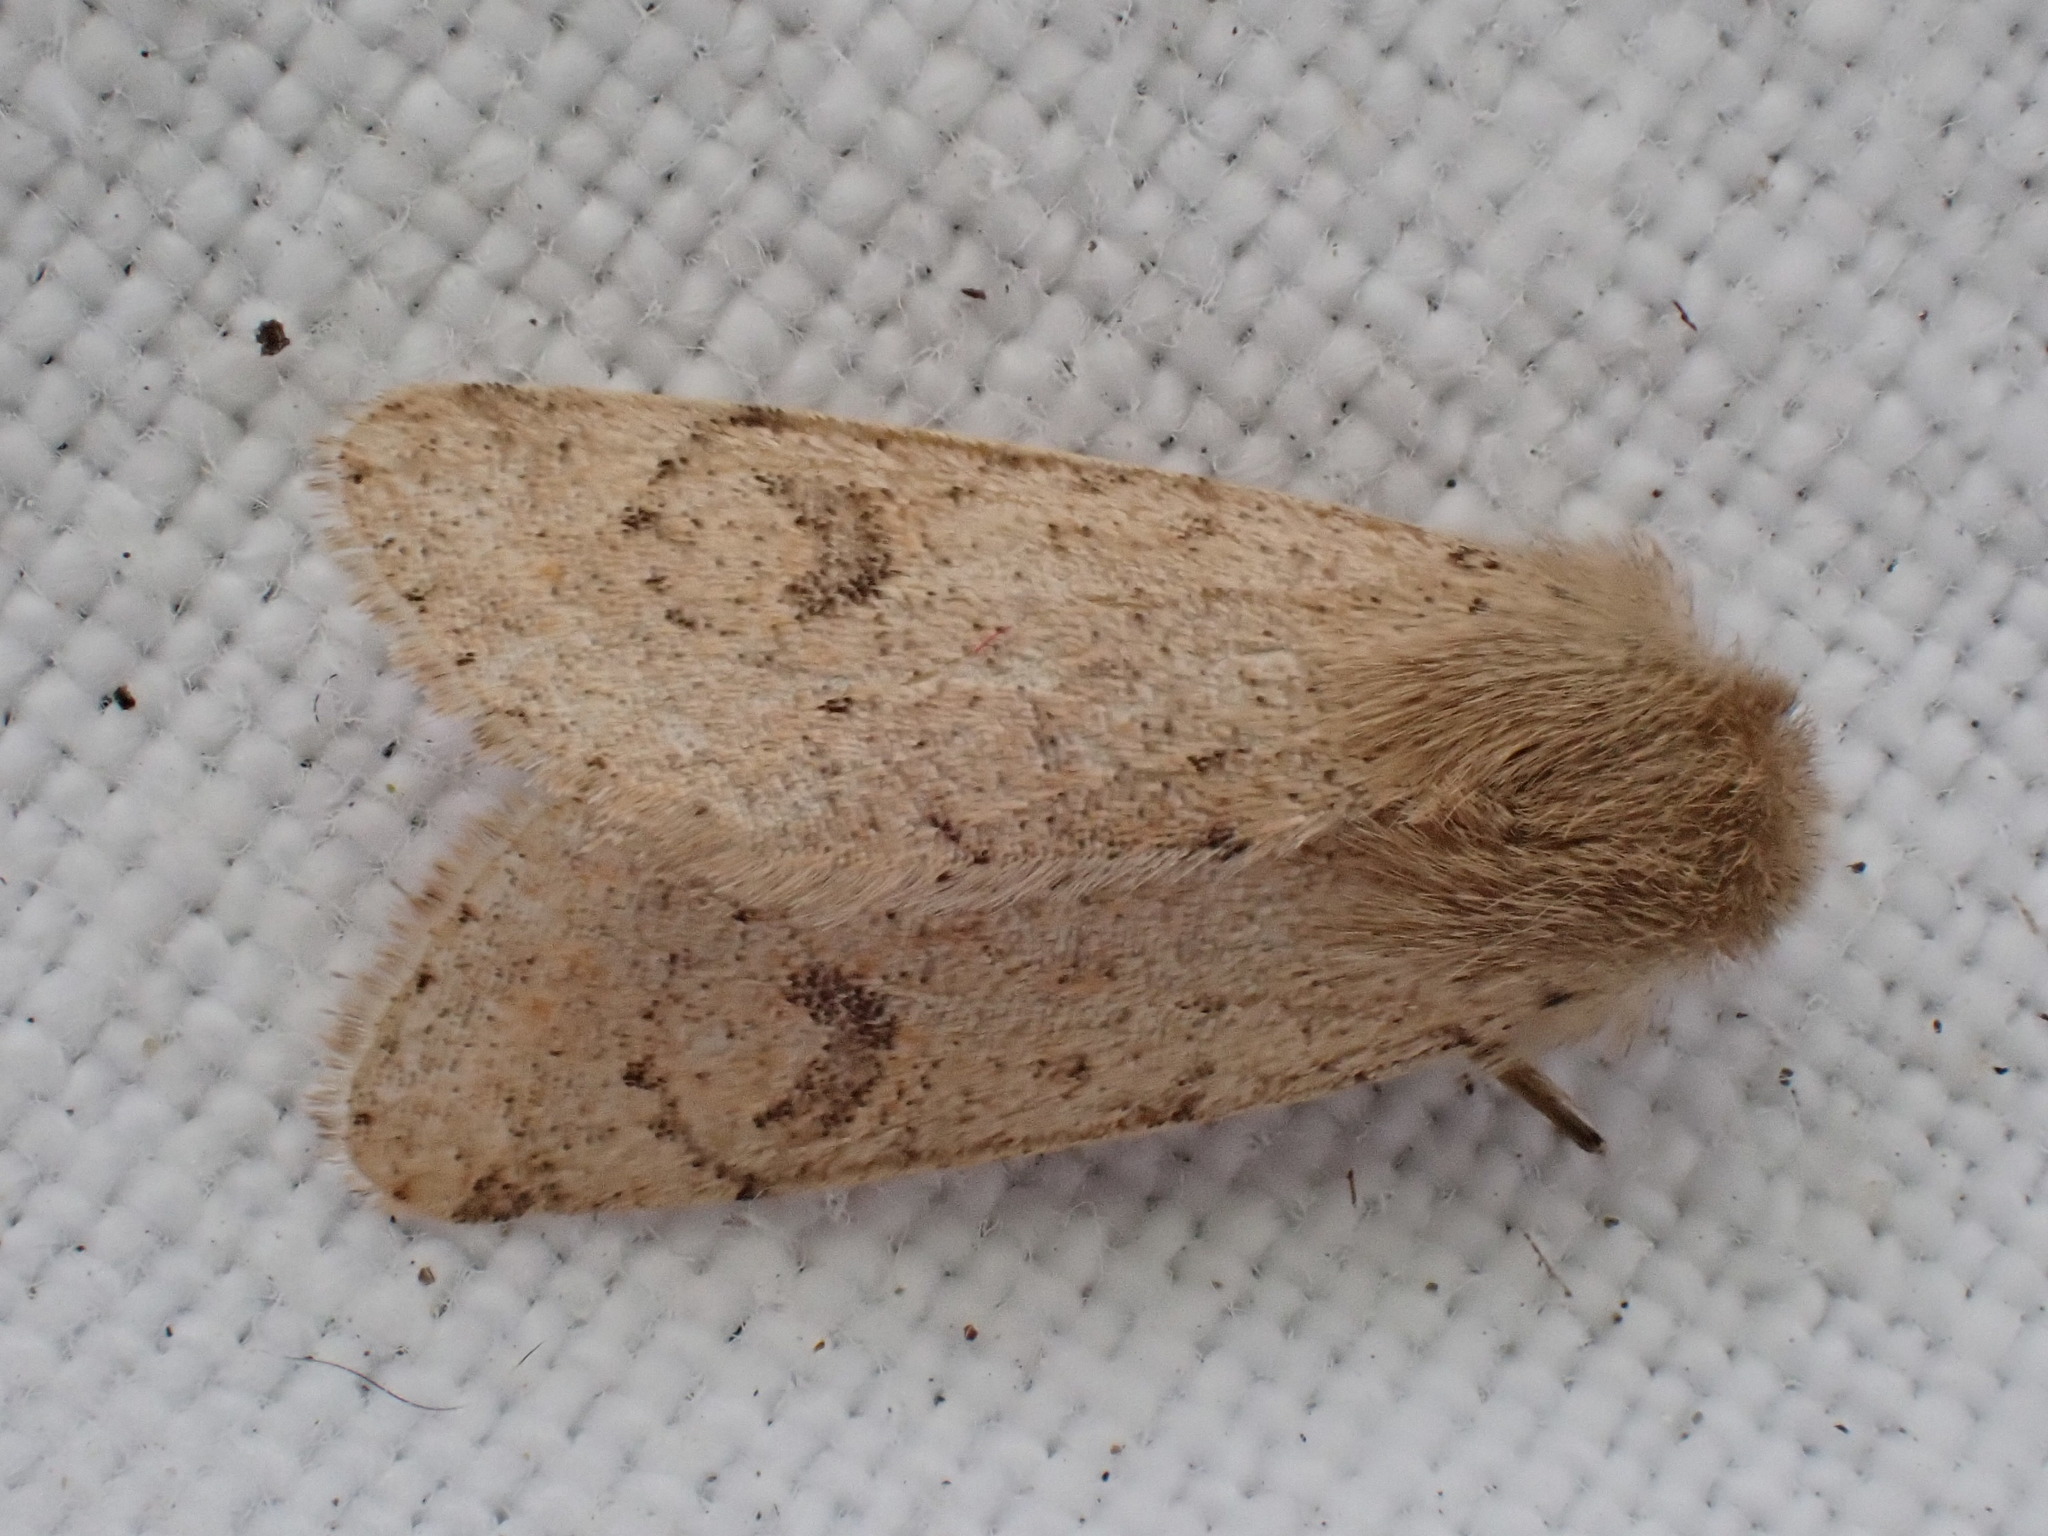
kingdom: Animalia
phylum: Arthropoda
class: Insecta
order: Lepidoptera
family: Noctuidae
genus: Orthosia
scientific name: Orthosia cruda
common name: Small quaker
